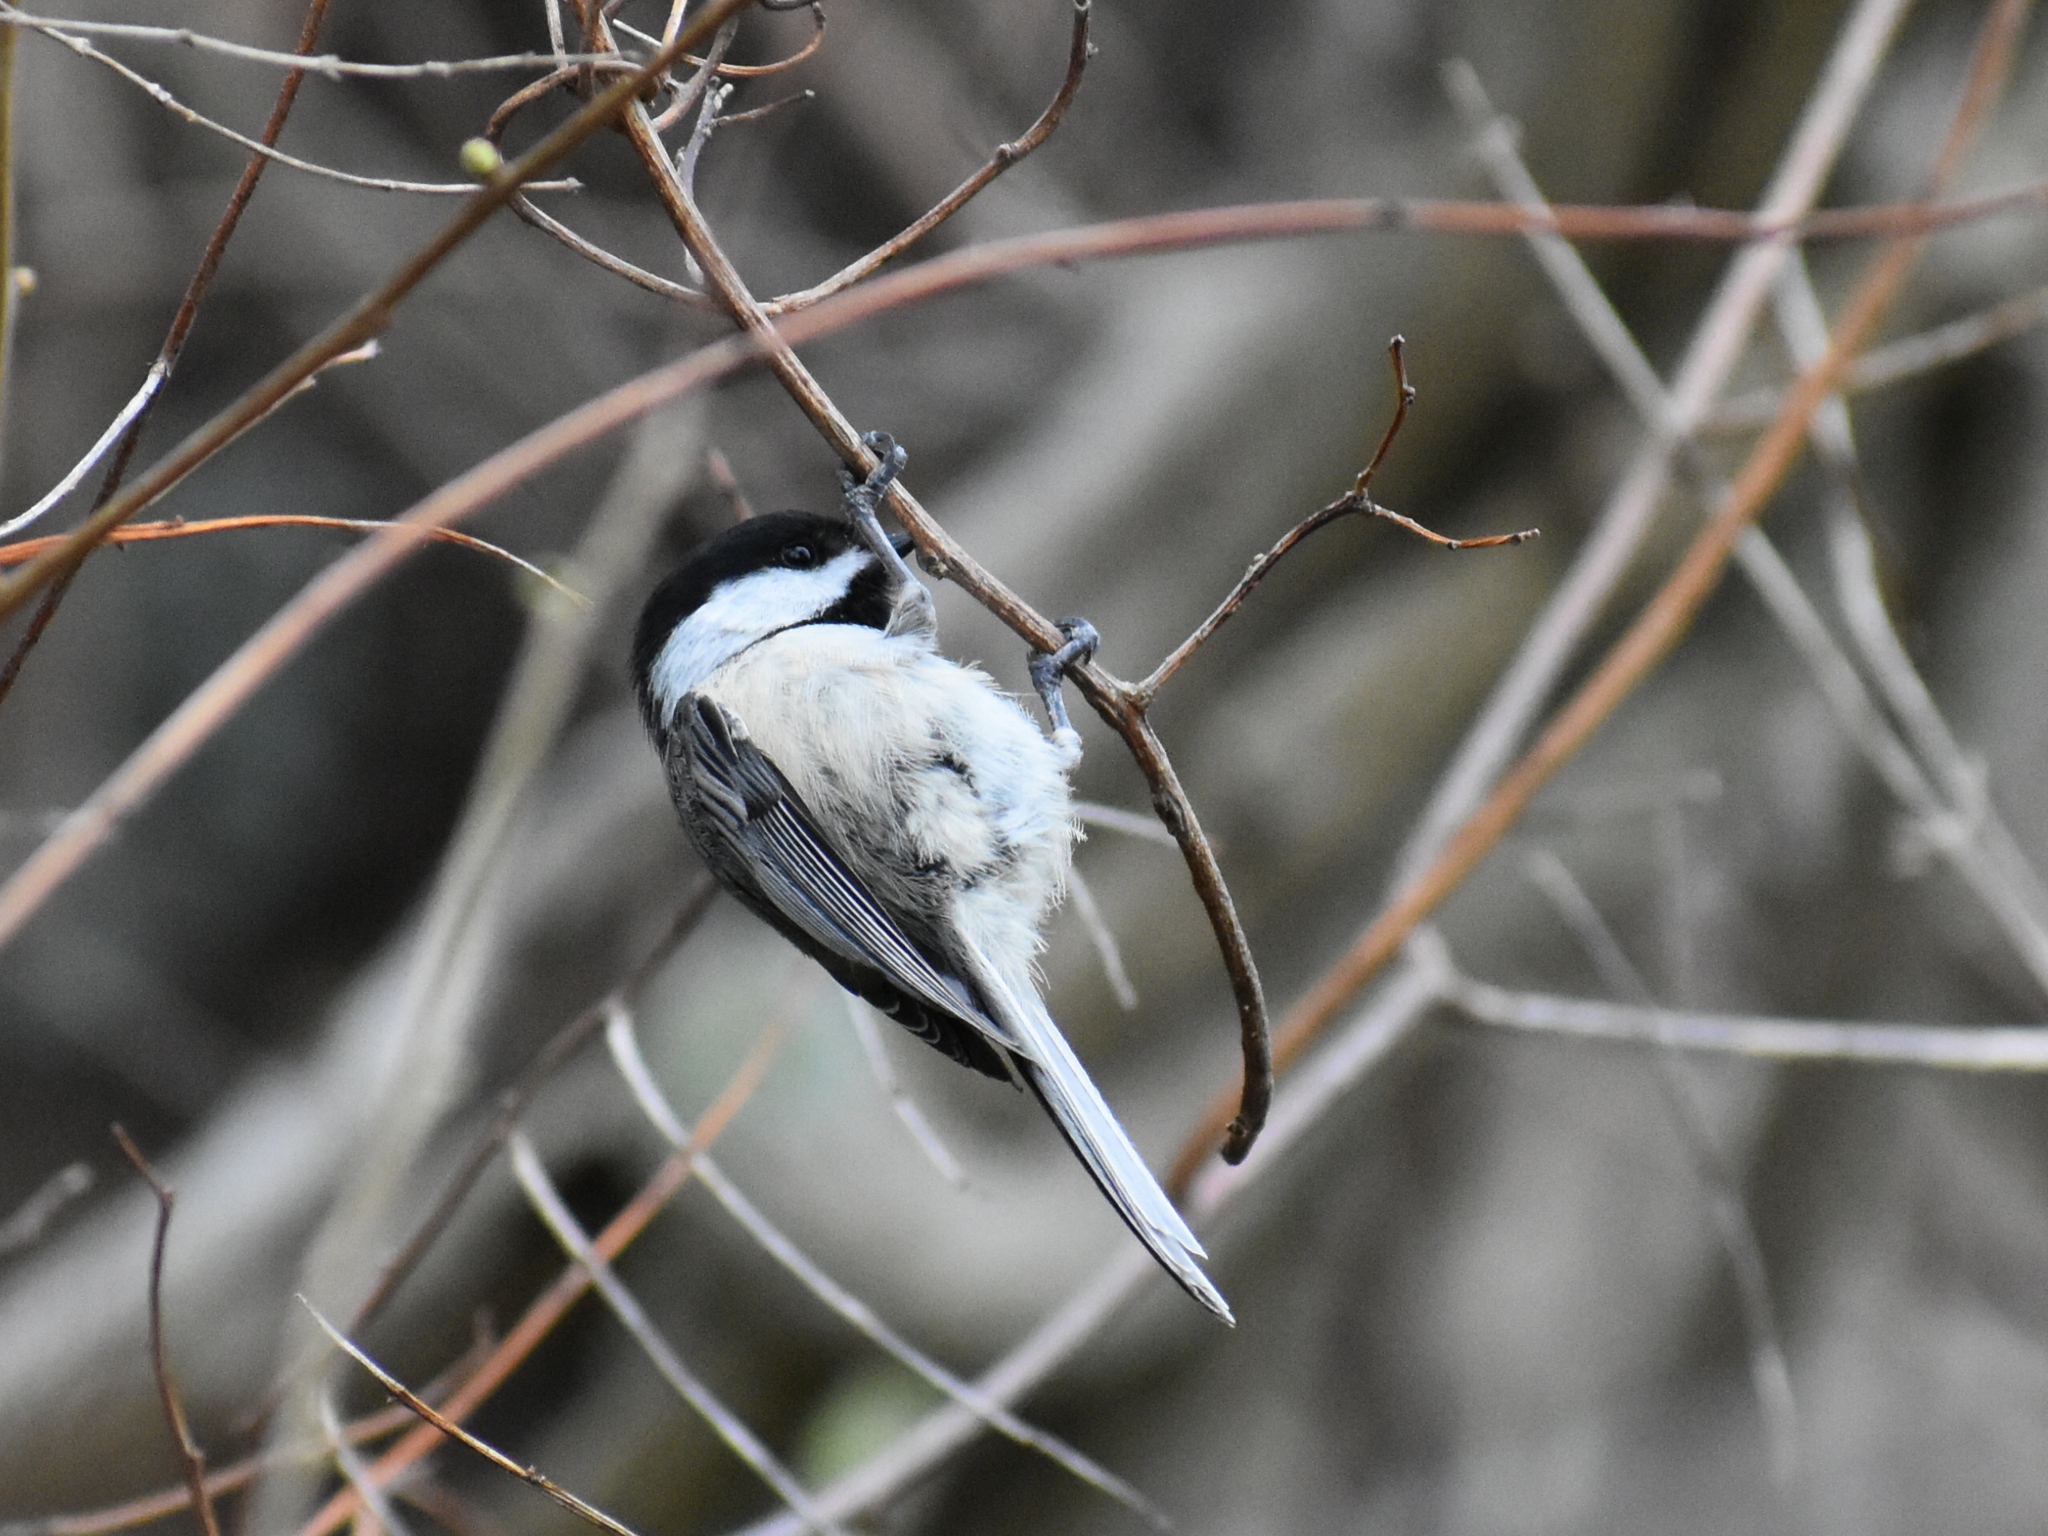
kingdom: Animalia
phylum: Chordata
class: Aves
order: Passeriformes
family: Paridae
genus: Poecile
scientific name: Poecile atricapillus
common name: Black-capped chickadee
